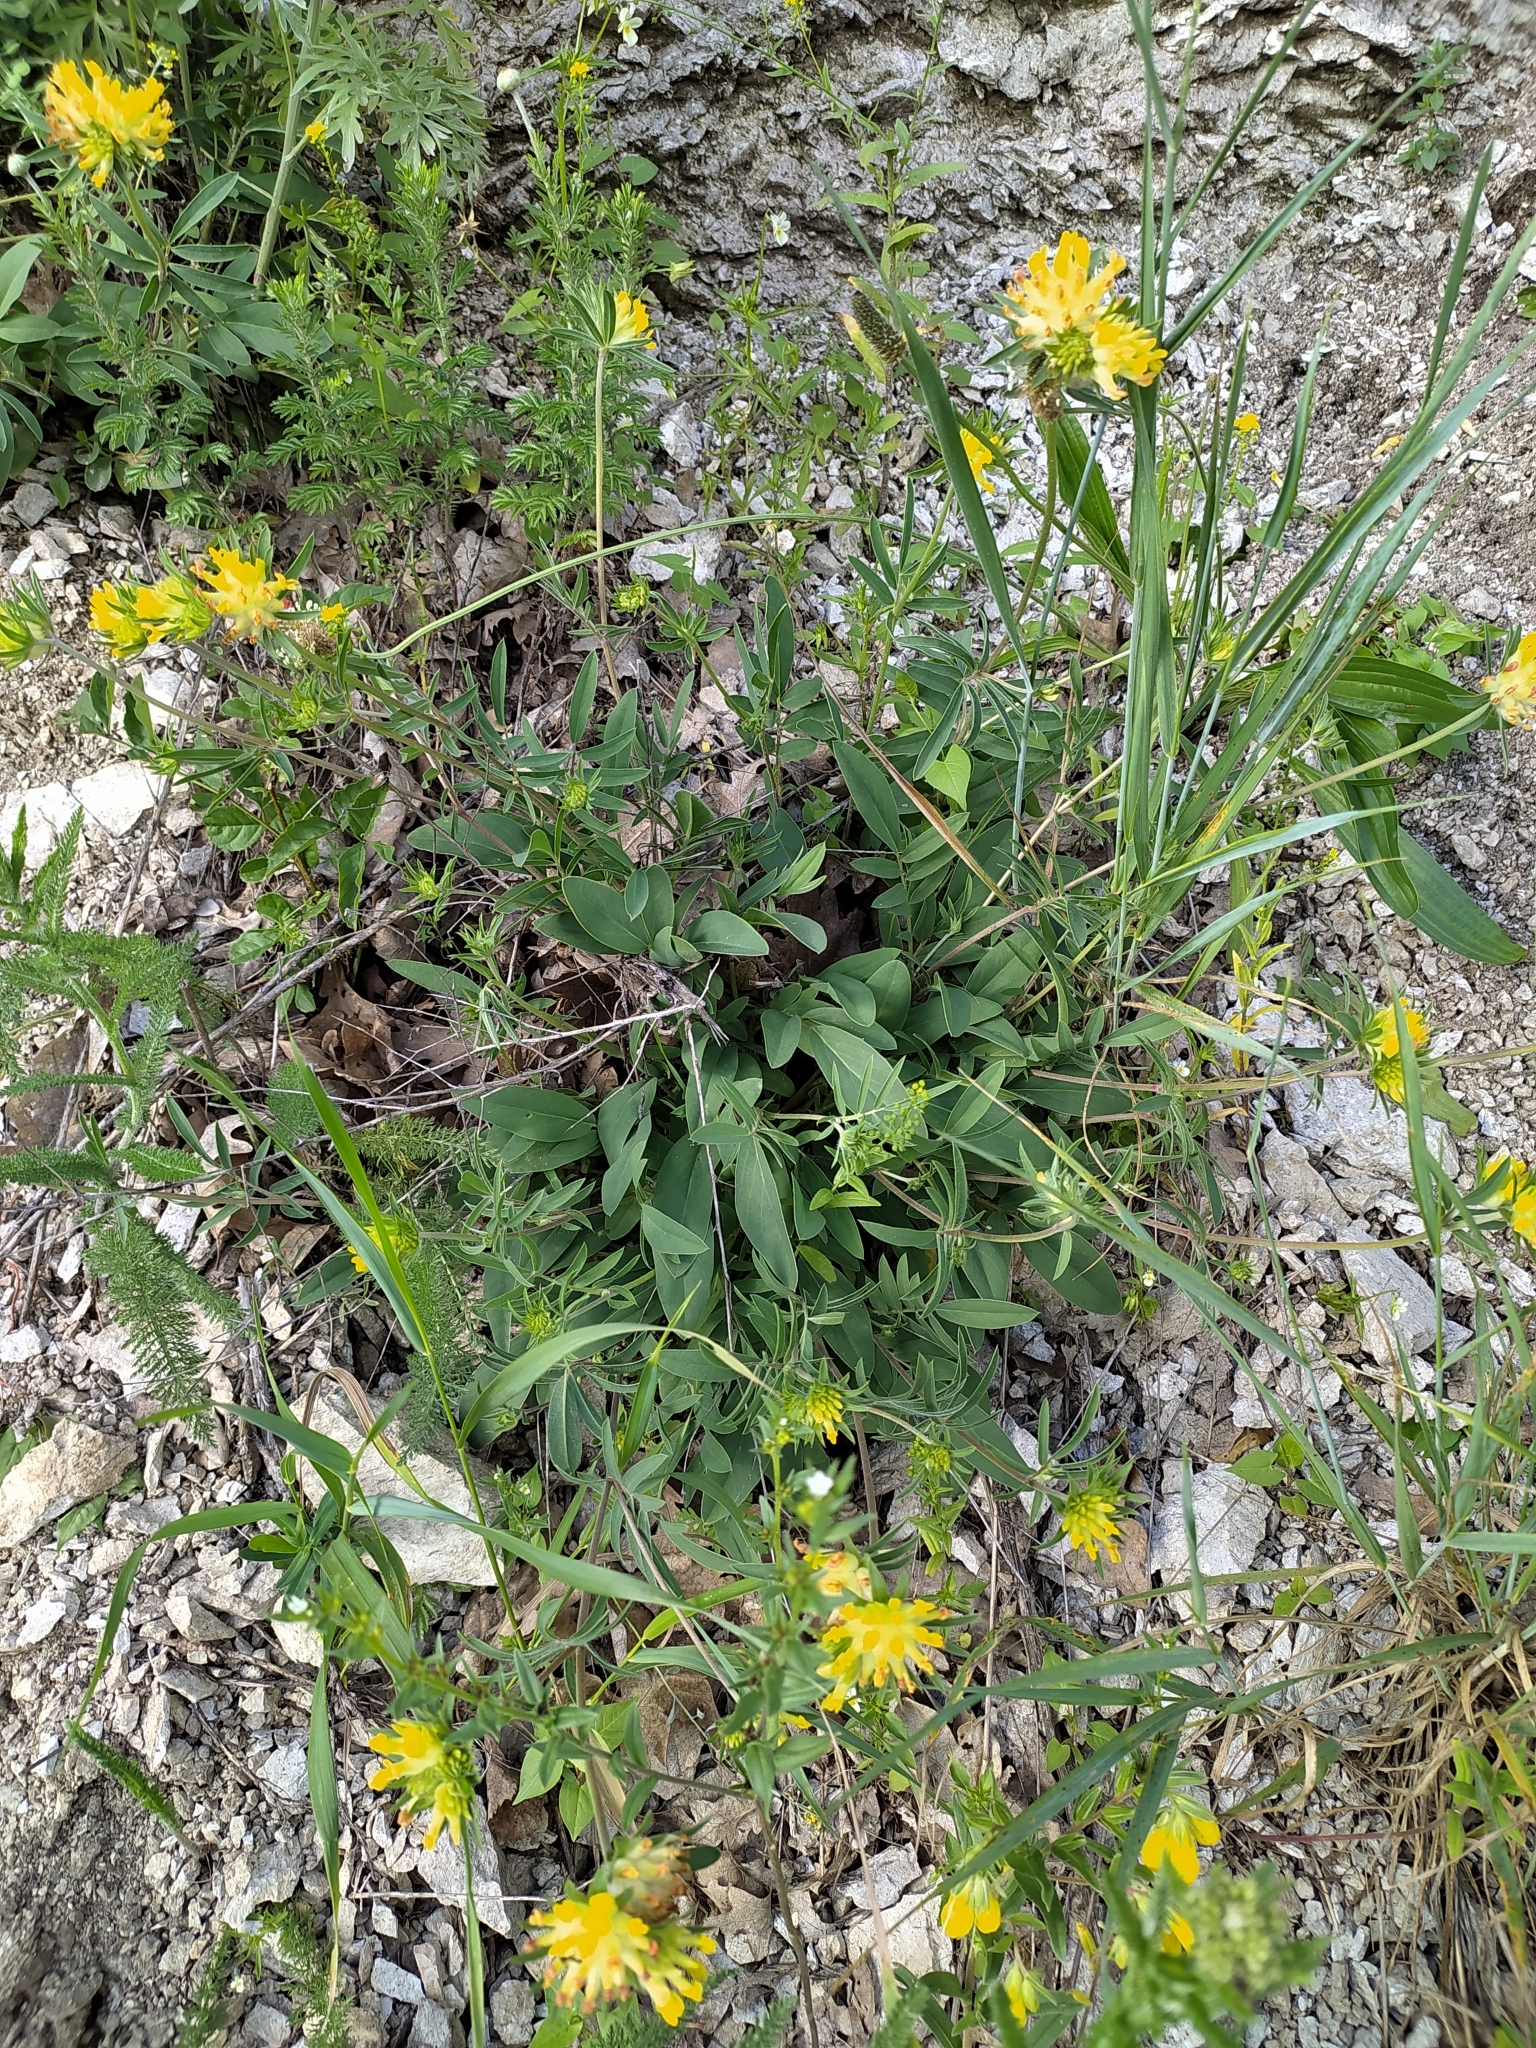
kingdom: Plantae
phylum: Tracheophyta
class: Magnoliopsida
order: Fabales
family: Fabaceae
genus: Anthyllis
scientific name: Anthyllis vulneraria
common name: Kidney vetch
